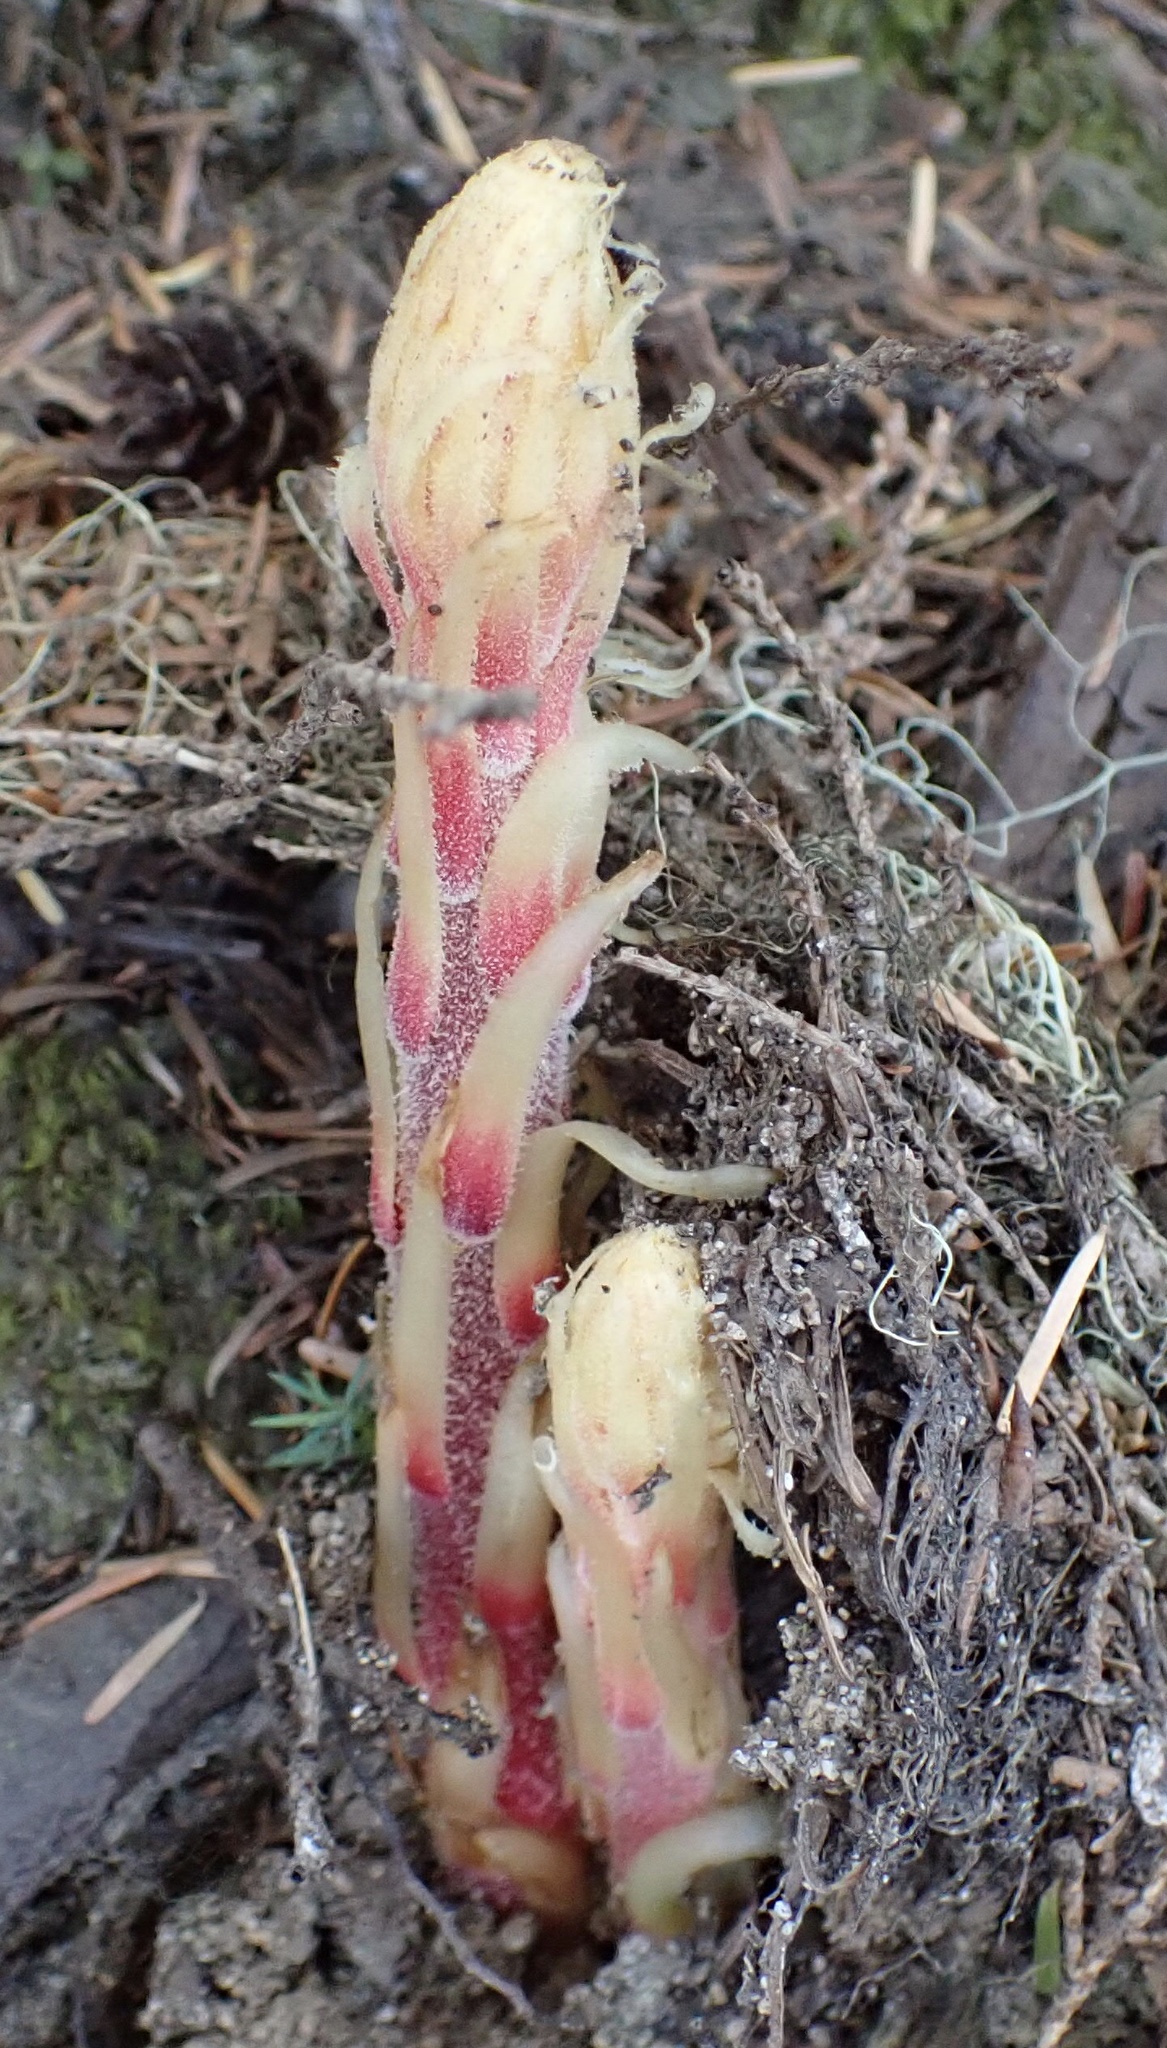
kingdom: Plantae
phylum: Tracheophyta
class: Magnoliopsida
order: Ericales
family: Ericaceae
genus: Pterospora
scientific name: Pterospora andromedea
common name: Giant bird's-nest
